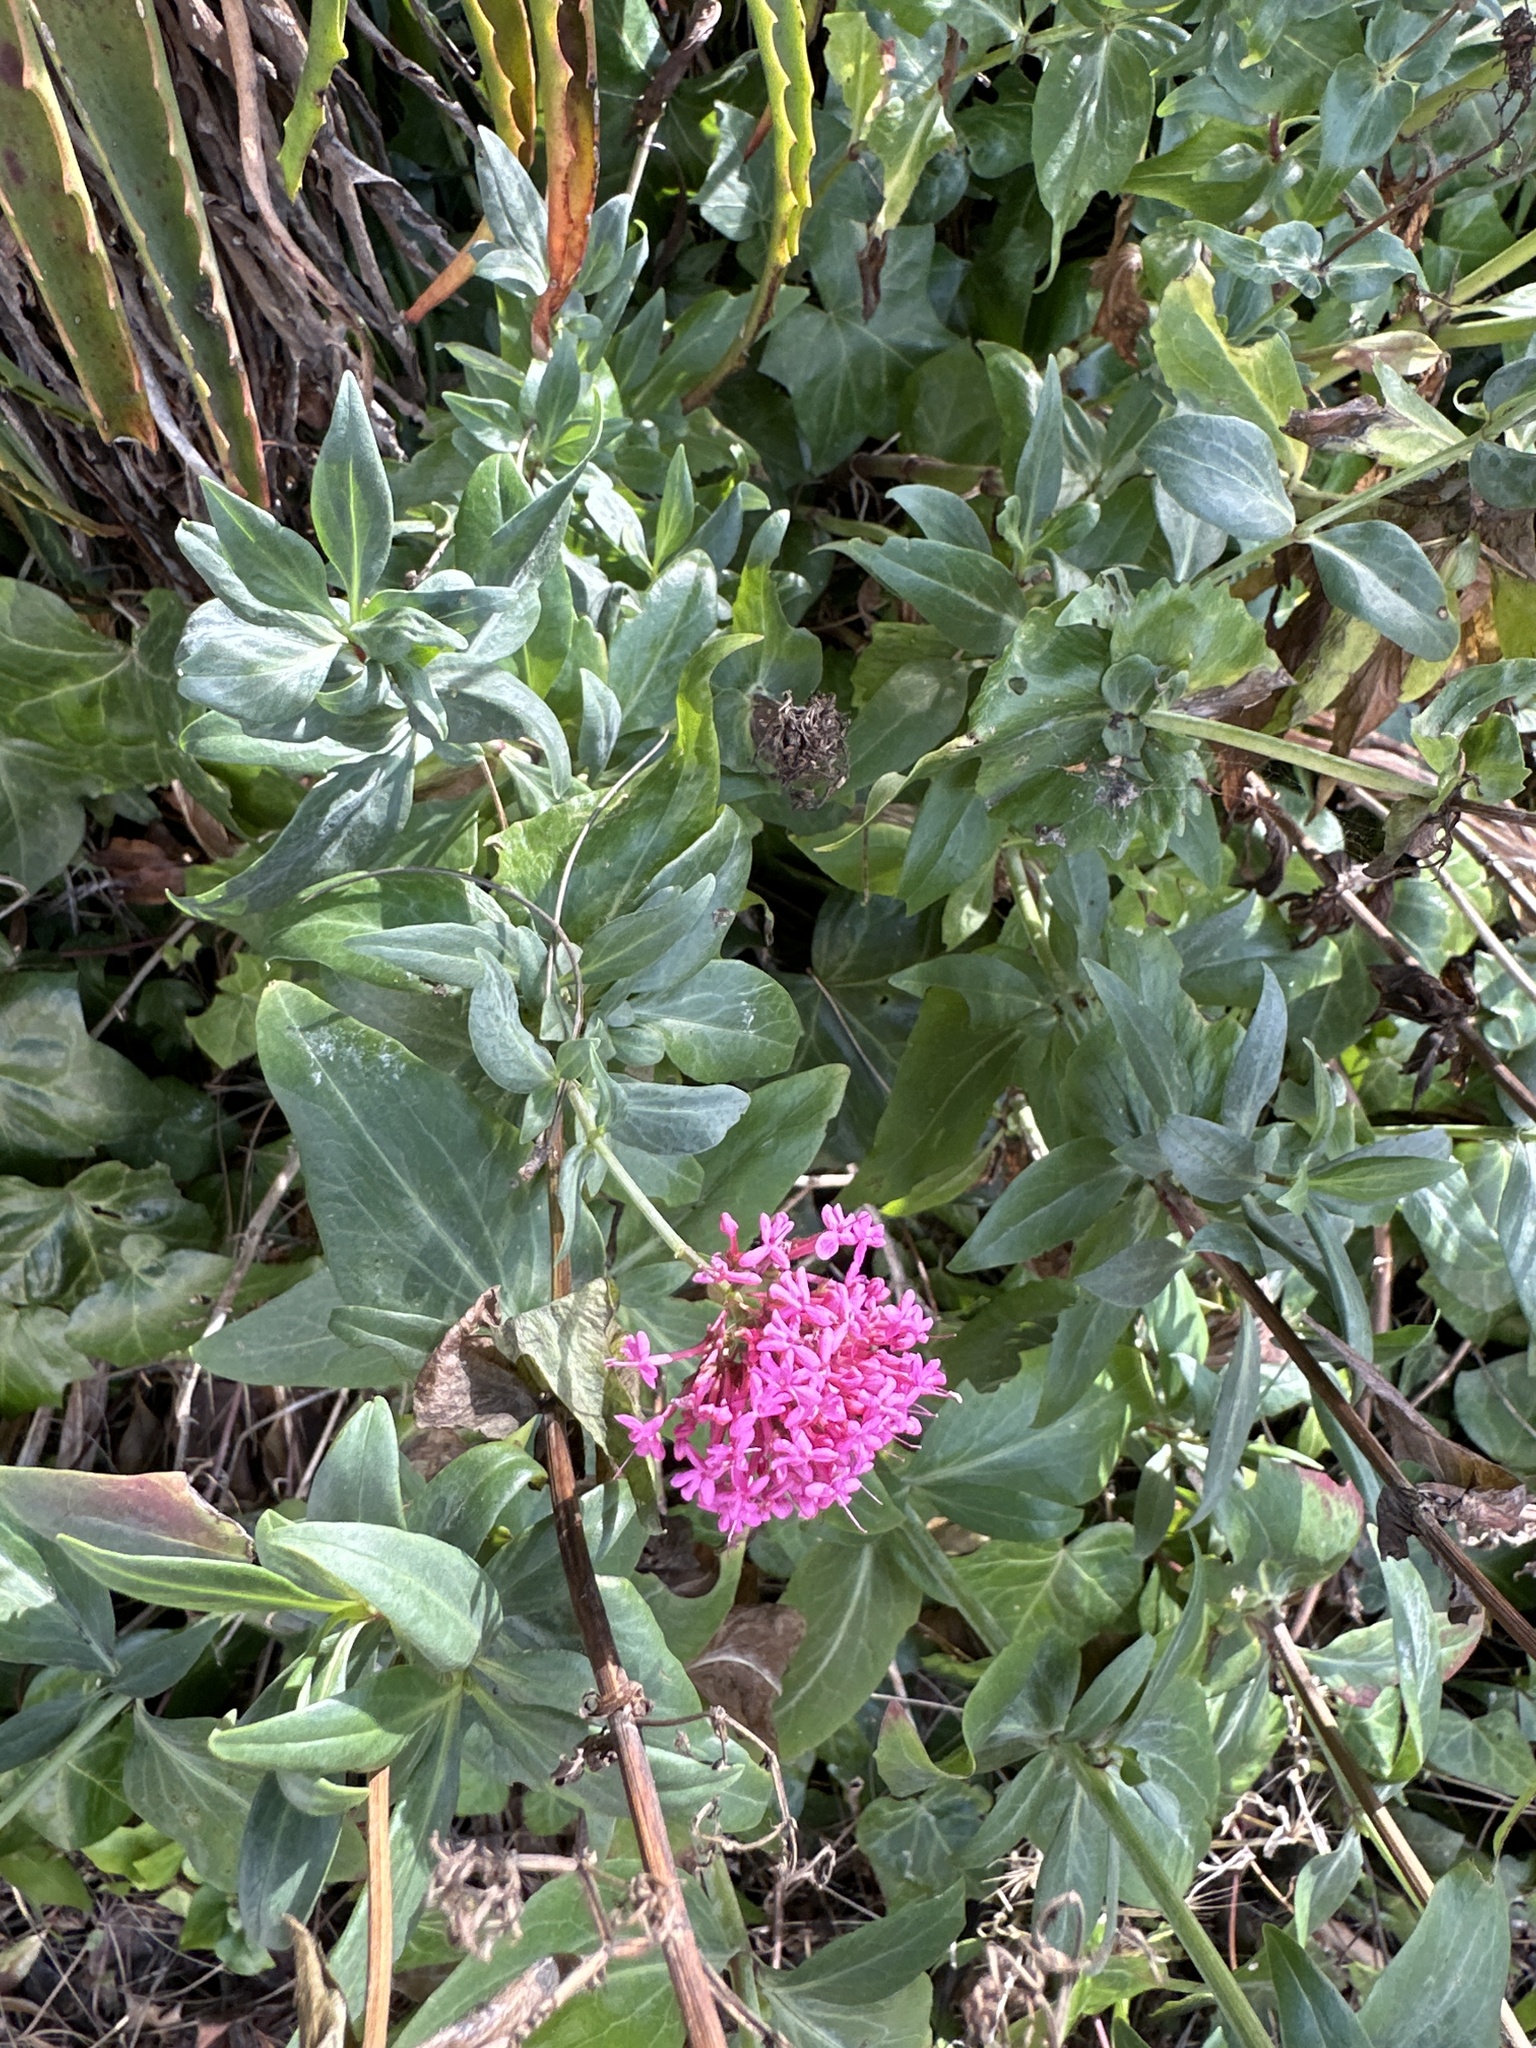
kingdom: Plantae
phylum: Tracheophyta
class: Magnoliopsida
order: Dipsacales
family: Caprifoliaceae
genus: Centranthus
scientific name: Centranthus ruber
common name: Red valerian
